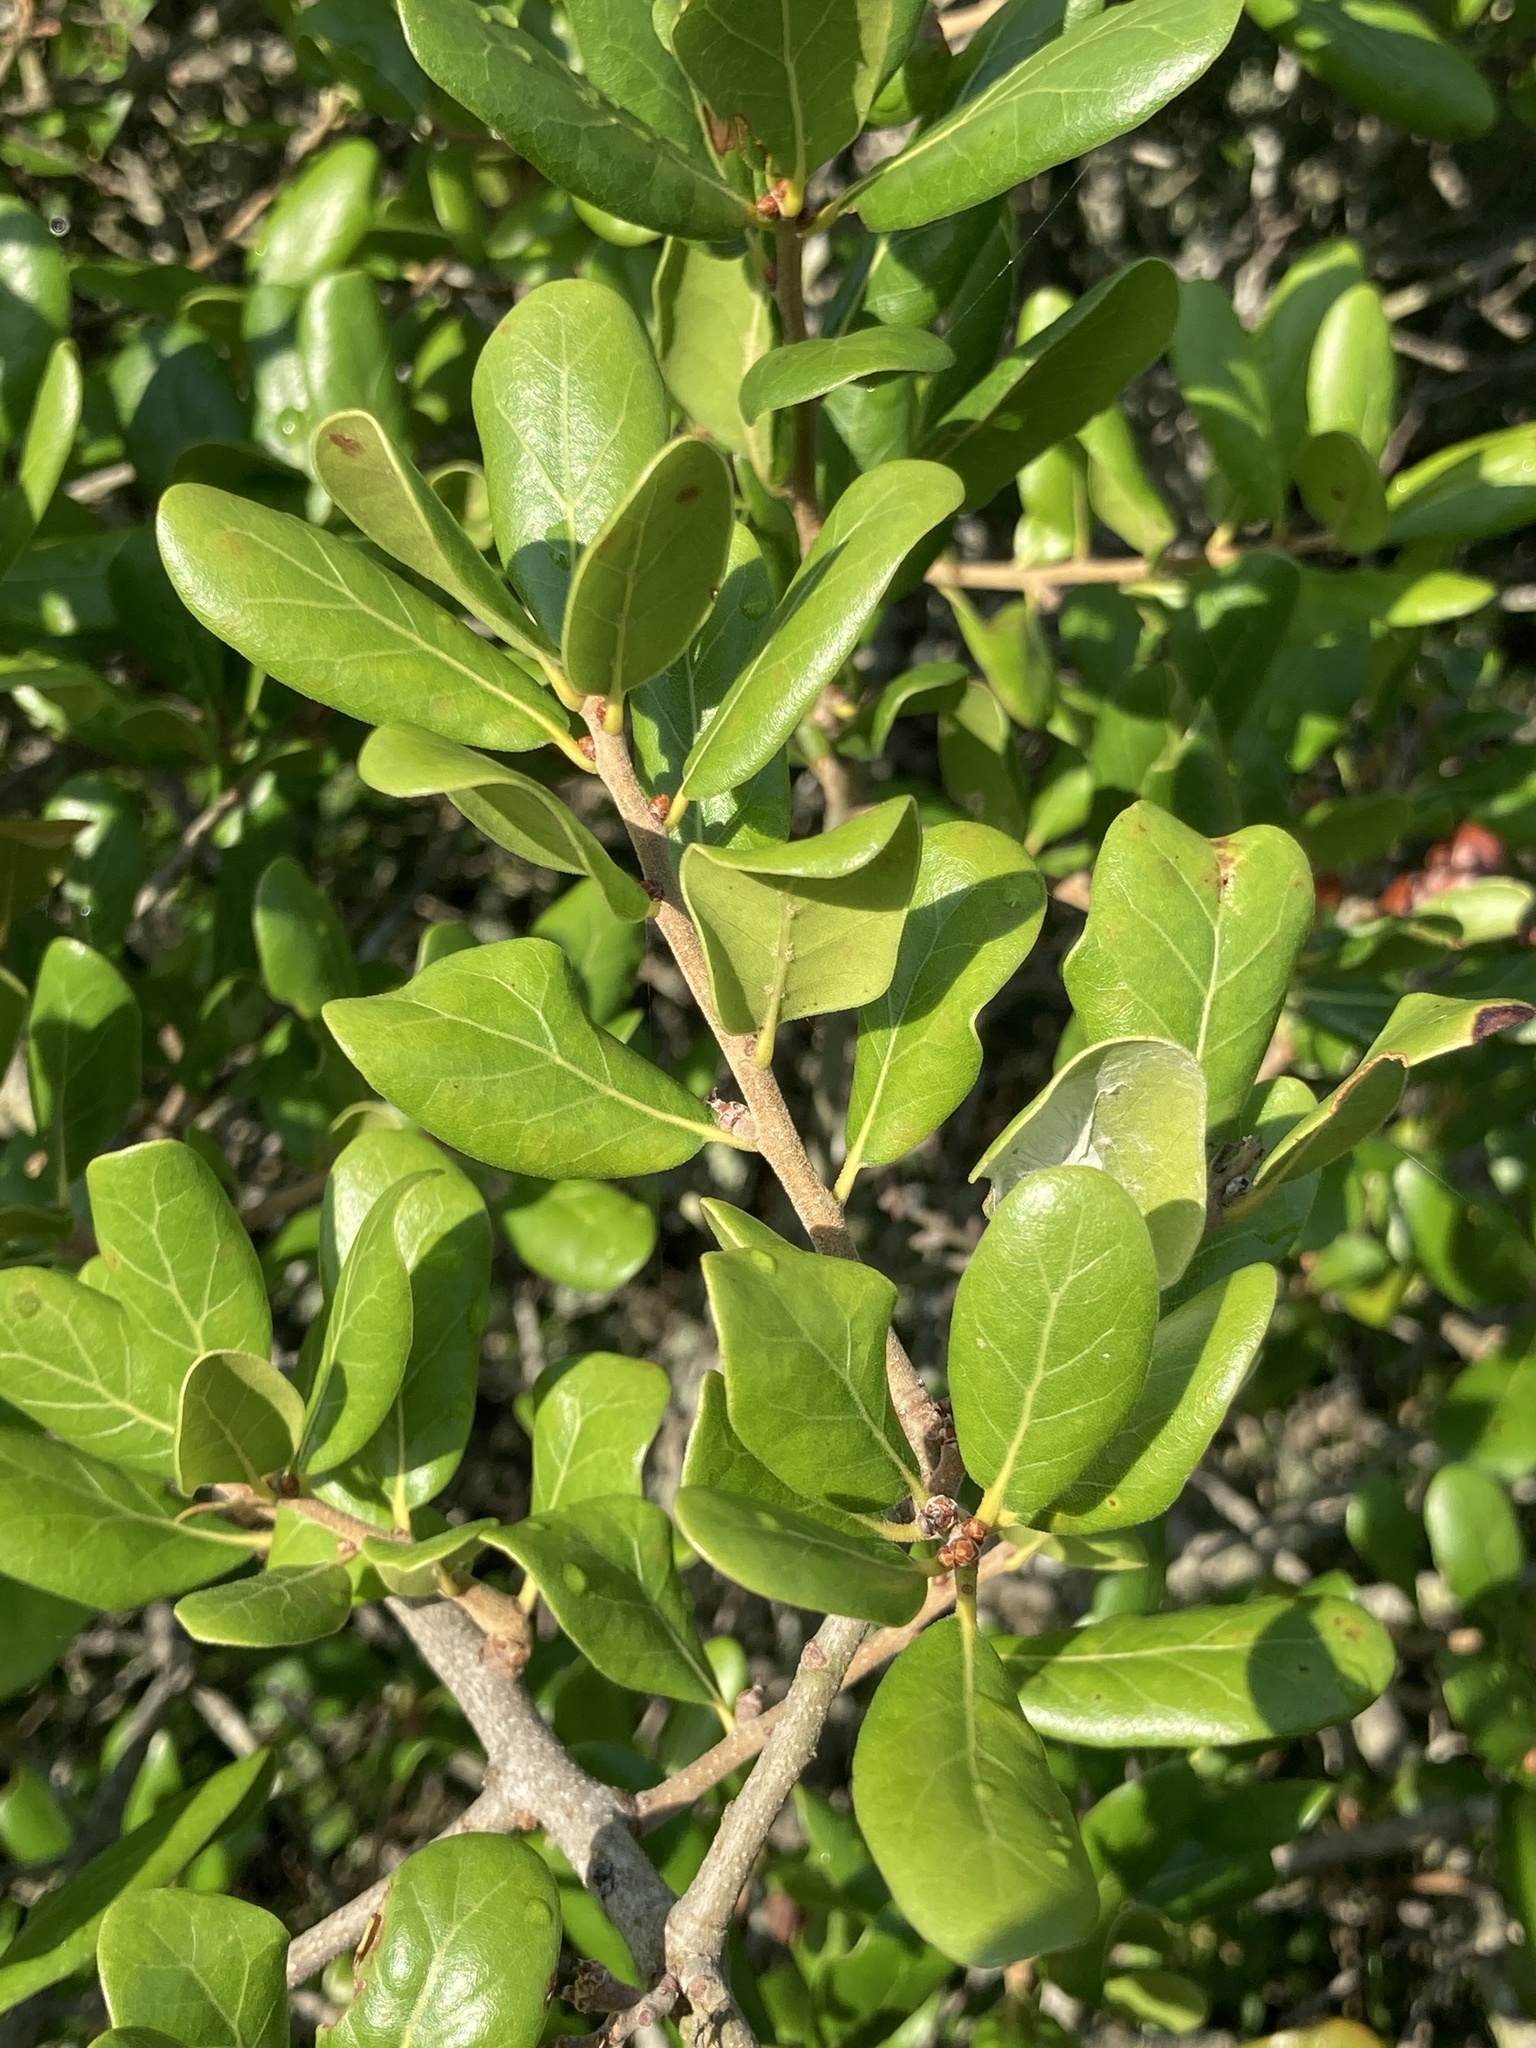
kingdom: Plantae
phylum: Tracheophyta
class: Magnoliopsida
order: Fagales
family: Fagaceae
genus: Quercus
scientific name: Quercus myrtifolia
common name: Myrtle oak
